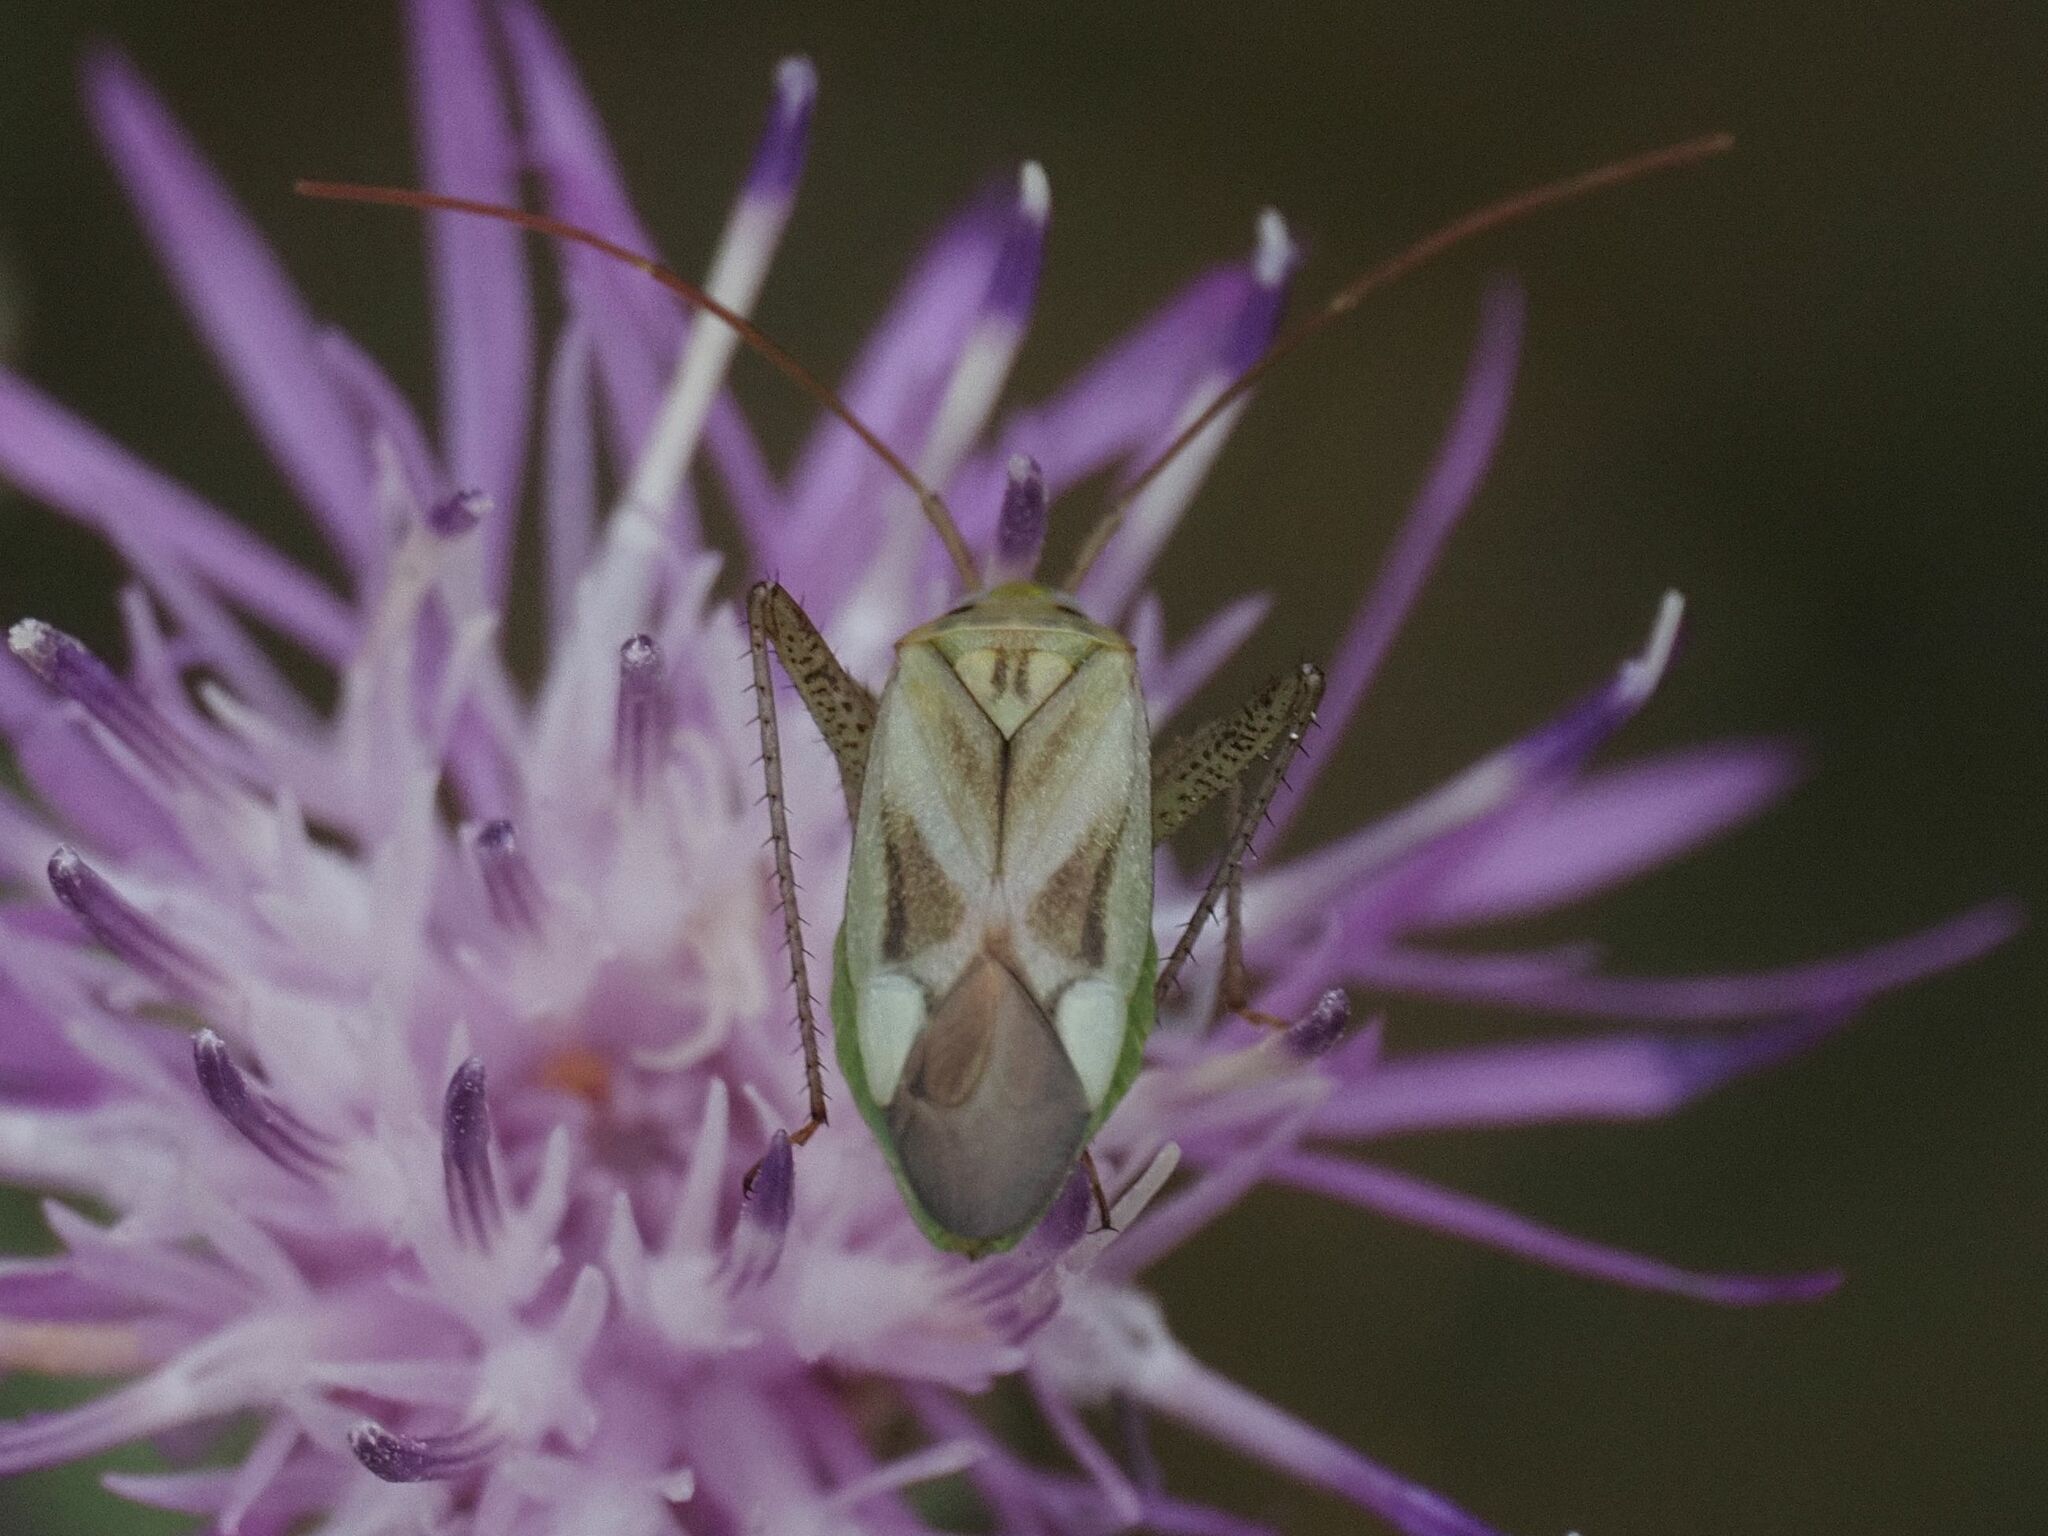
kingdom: Animalia
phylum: Arthropoda
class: Insecta
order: Hemiptera
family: Miridae
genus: Adelphocoris
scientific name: Adelphocoris lineolatus
